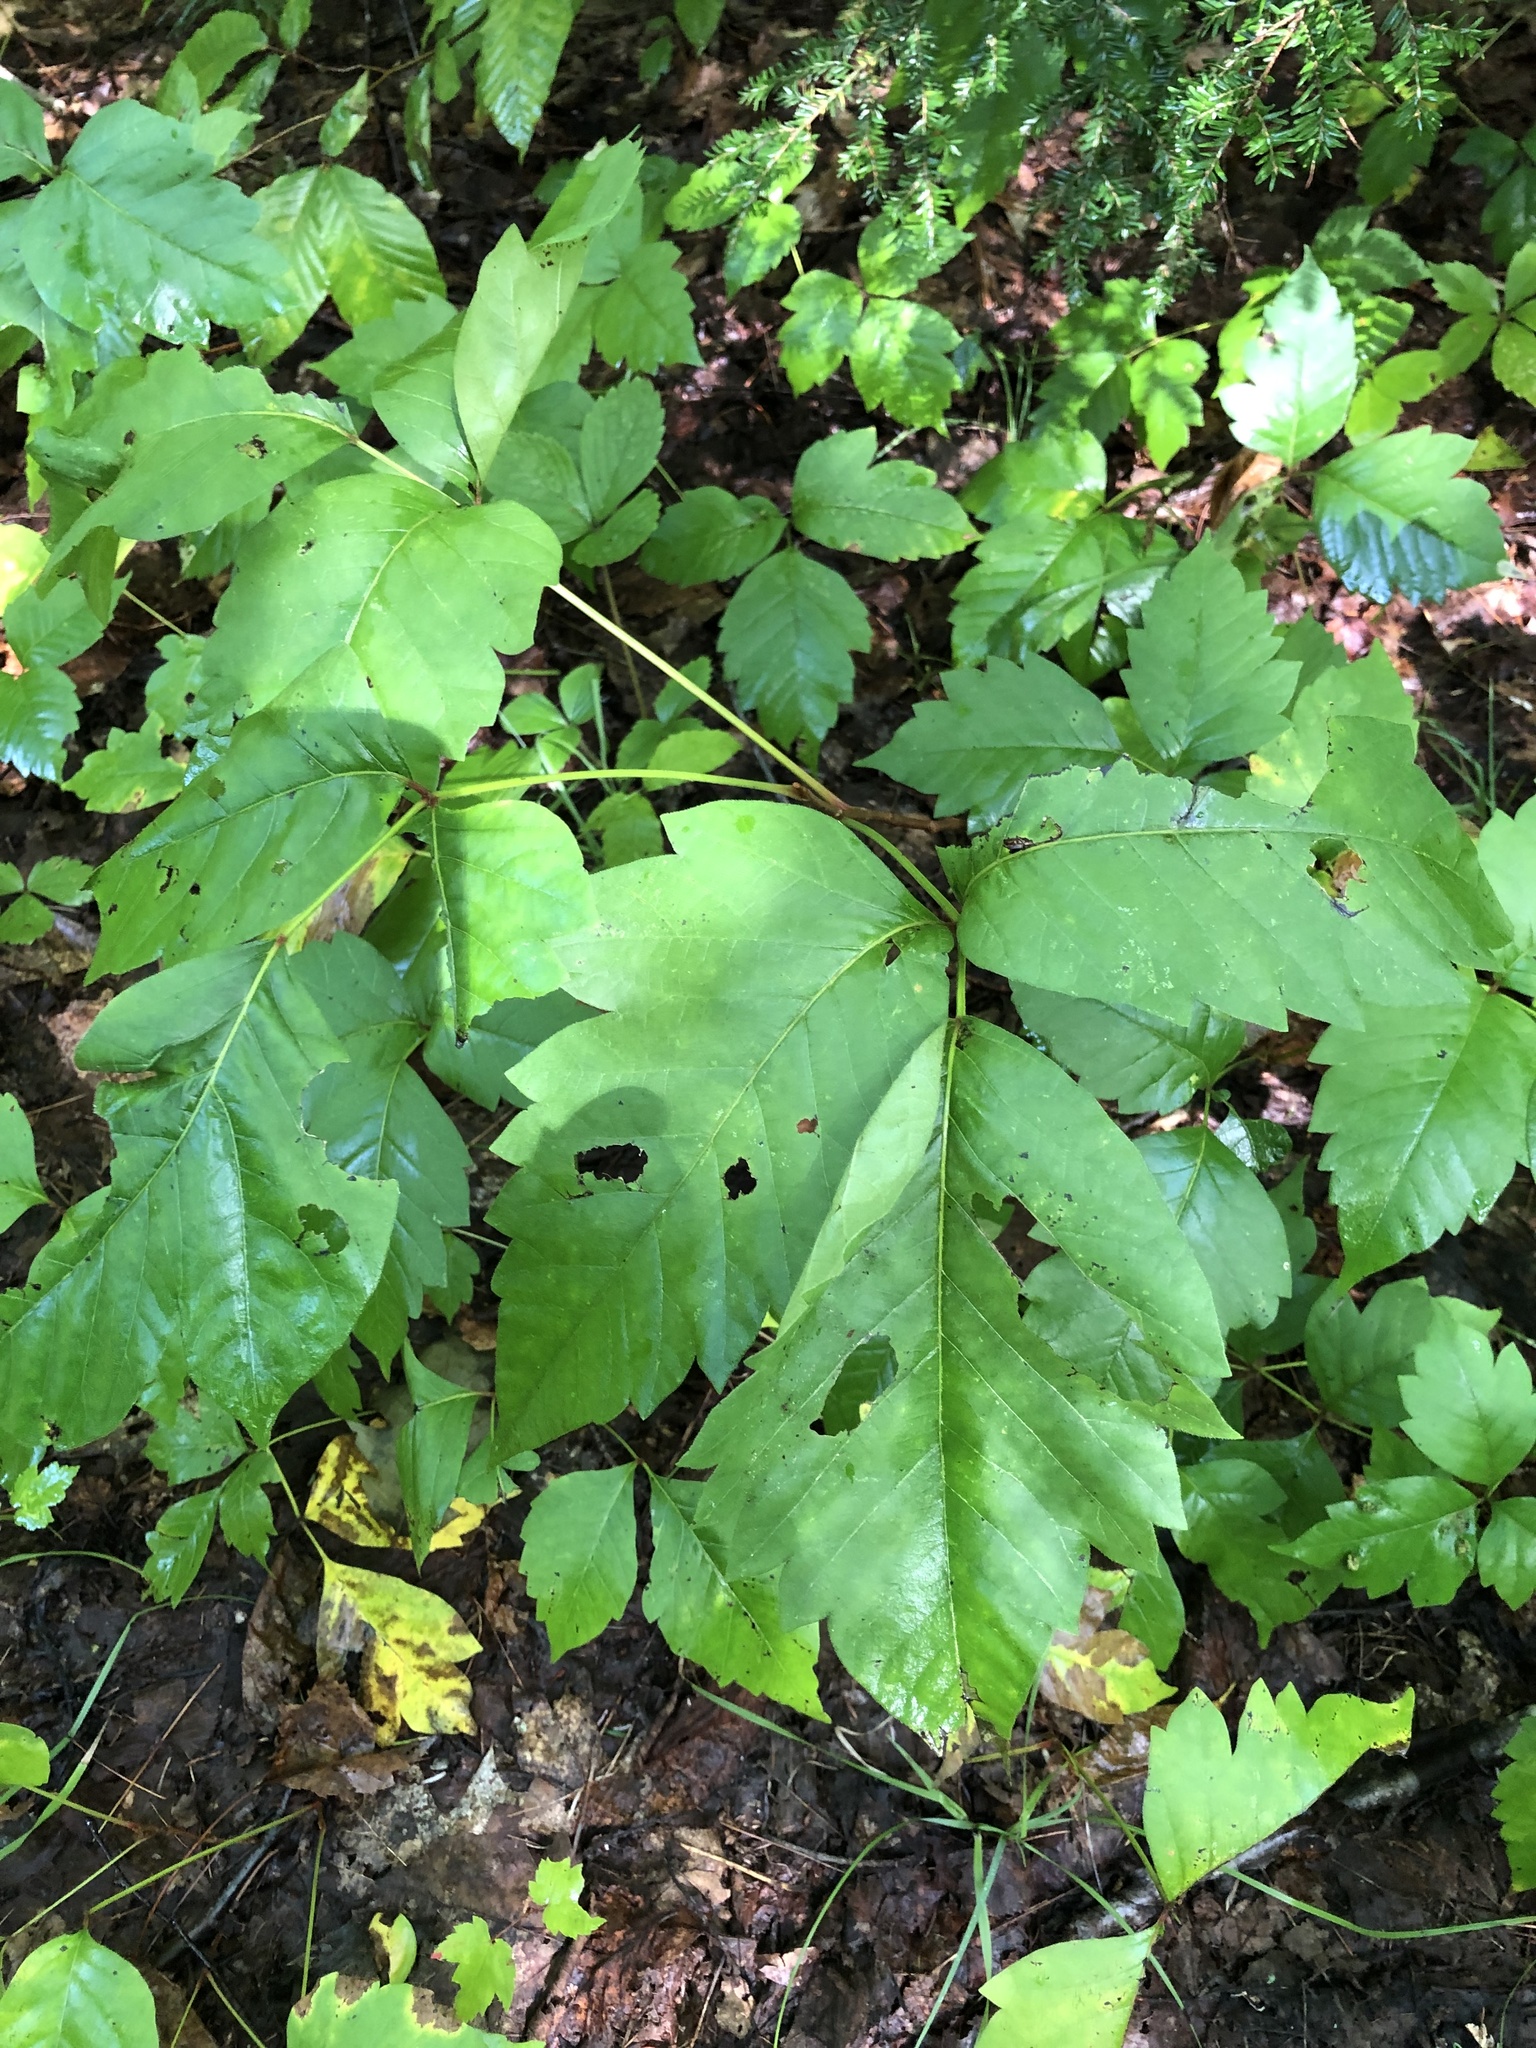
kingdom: Plantae
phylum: Tracheophyta
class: Magnoliopsida
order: Sapindales
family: Anacardiaceae
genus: Toxicodendron
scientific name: Toxicodendron radicans
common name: Poison ivy
